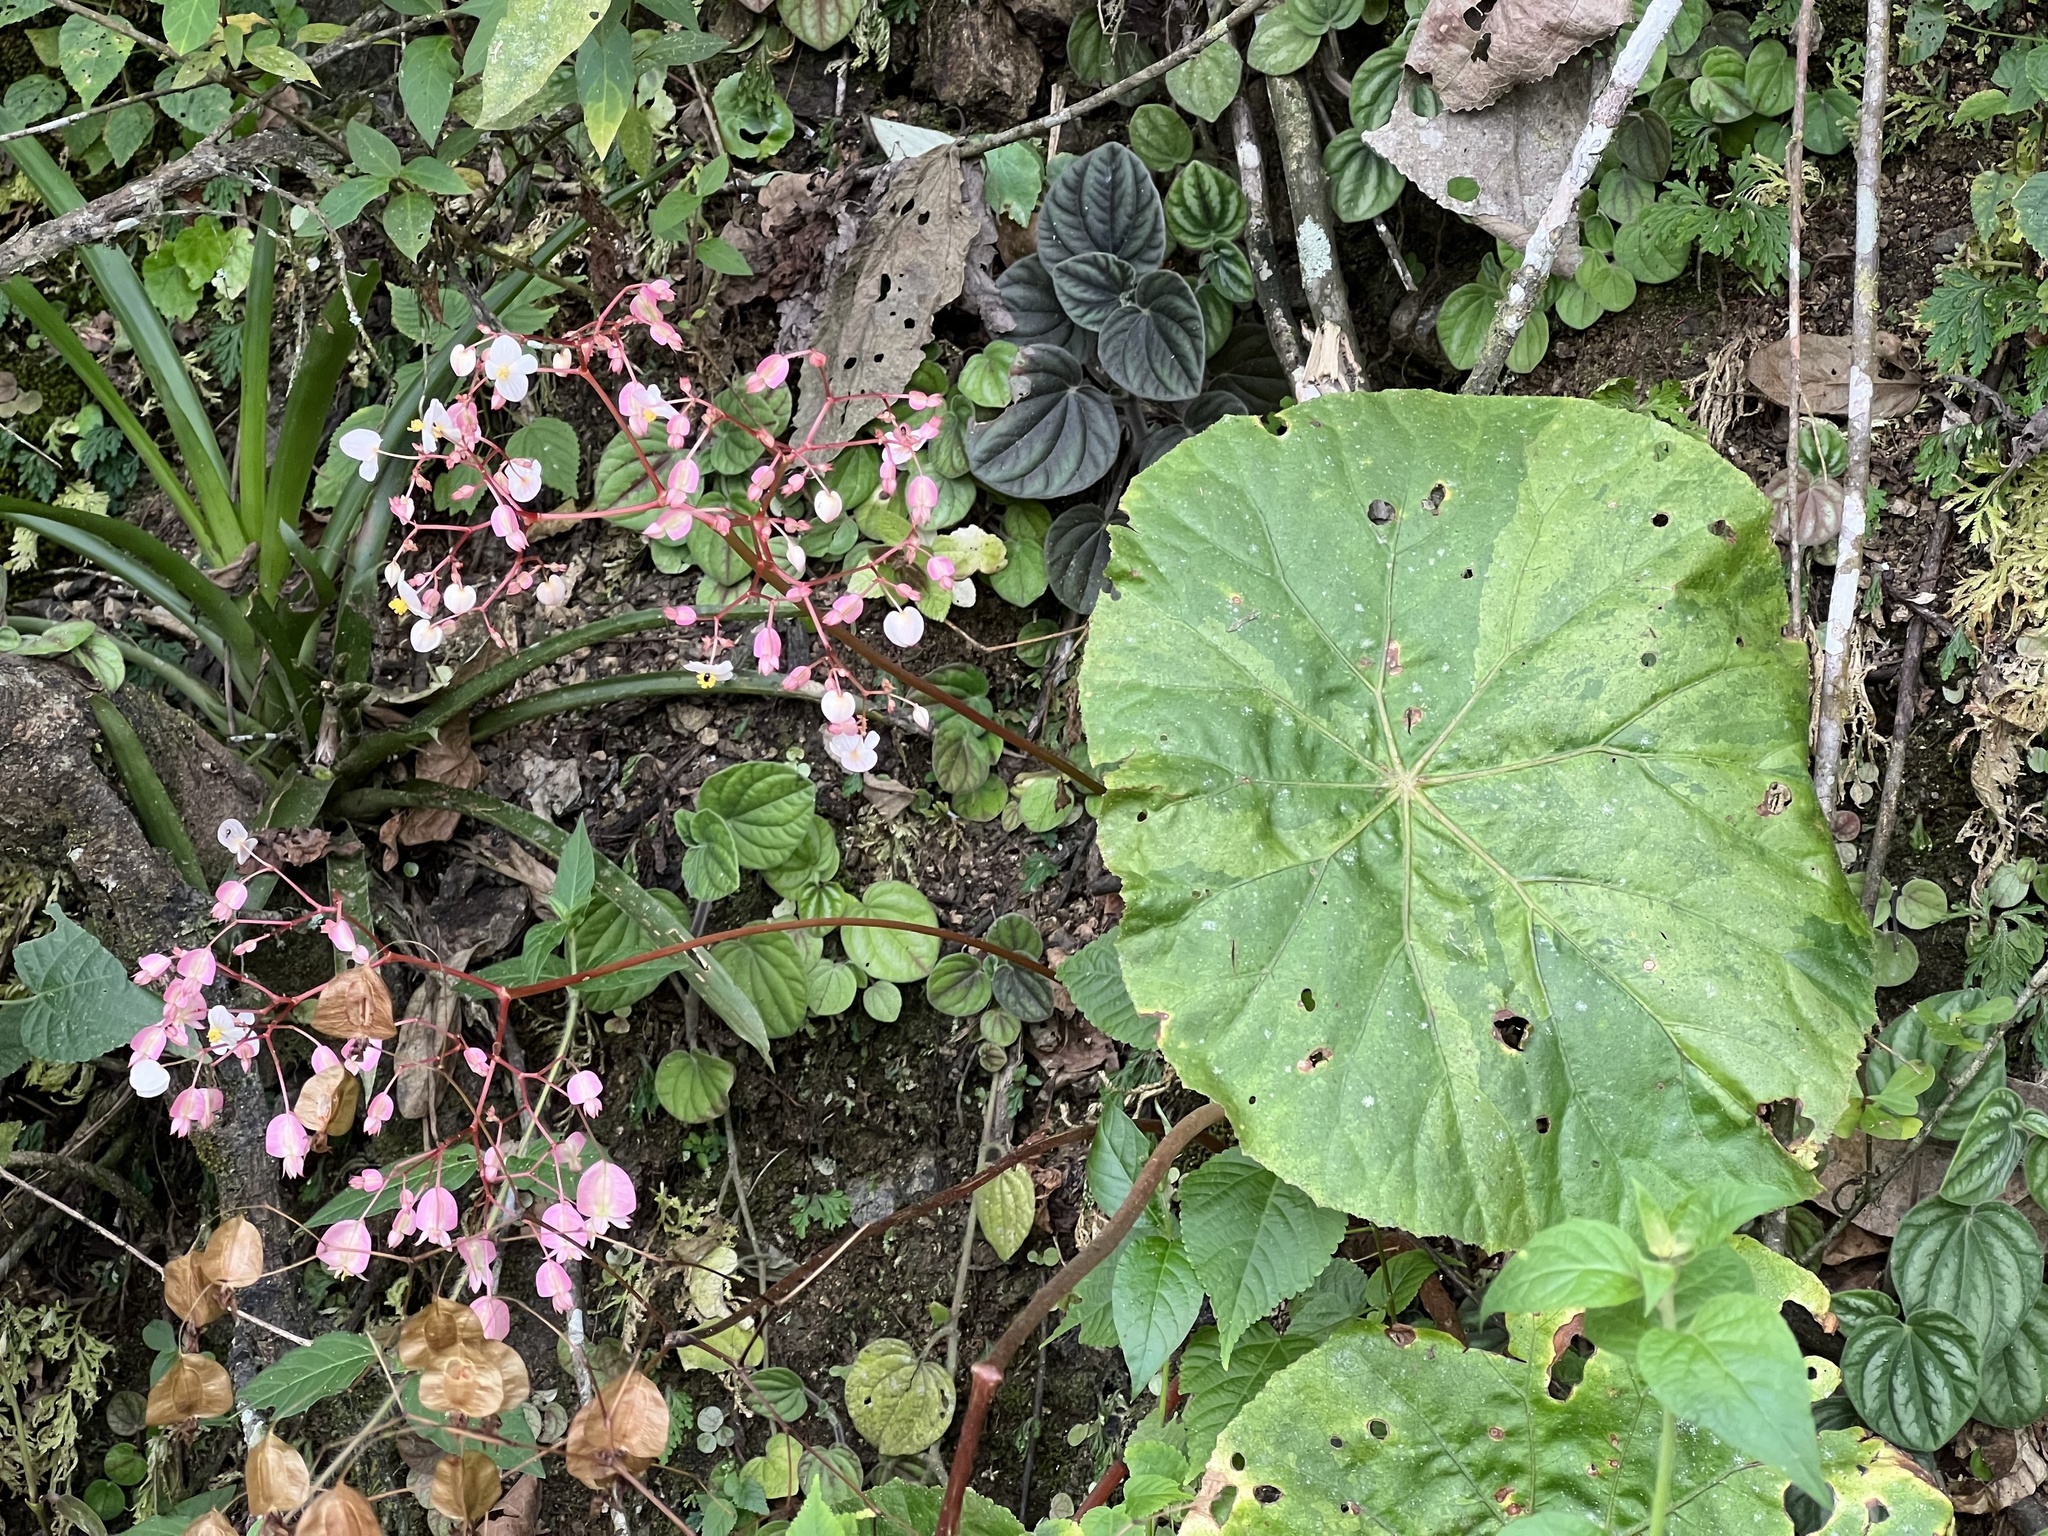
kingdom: Plantae
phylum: Tracheophyta
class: Magnoliopsida
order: Cucurbitales
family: Begoniaceae
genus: Begonia
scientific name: Begonia serotina
